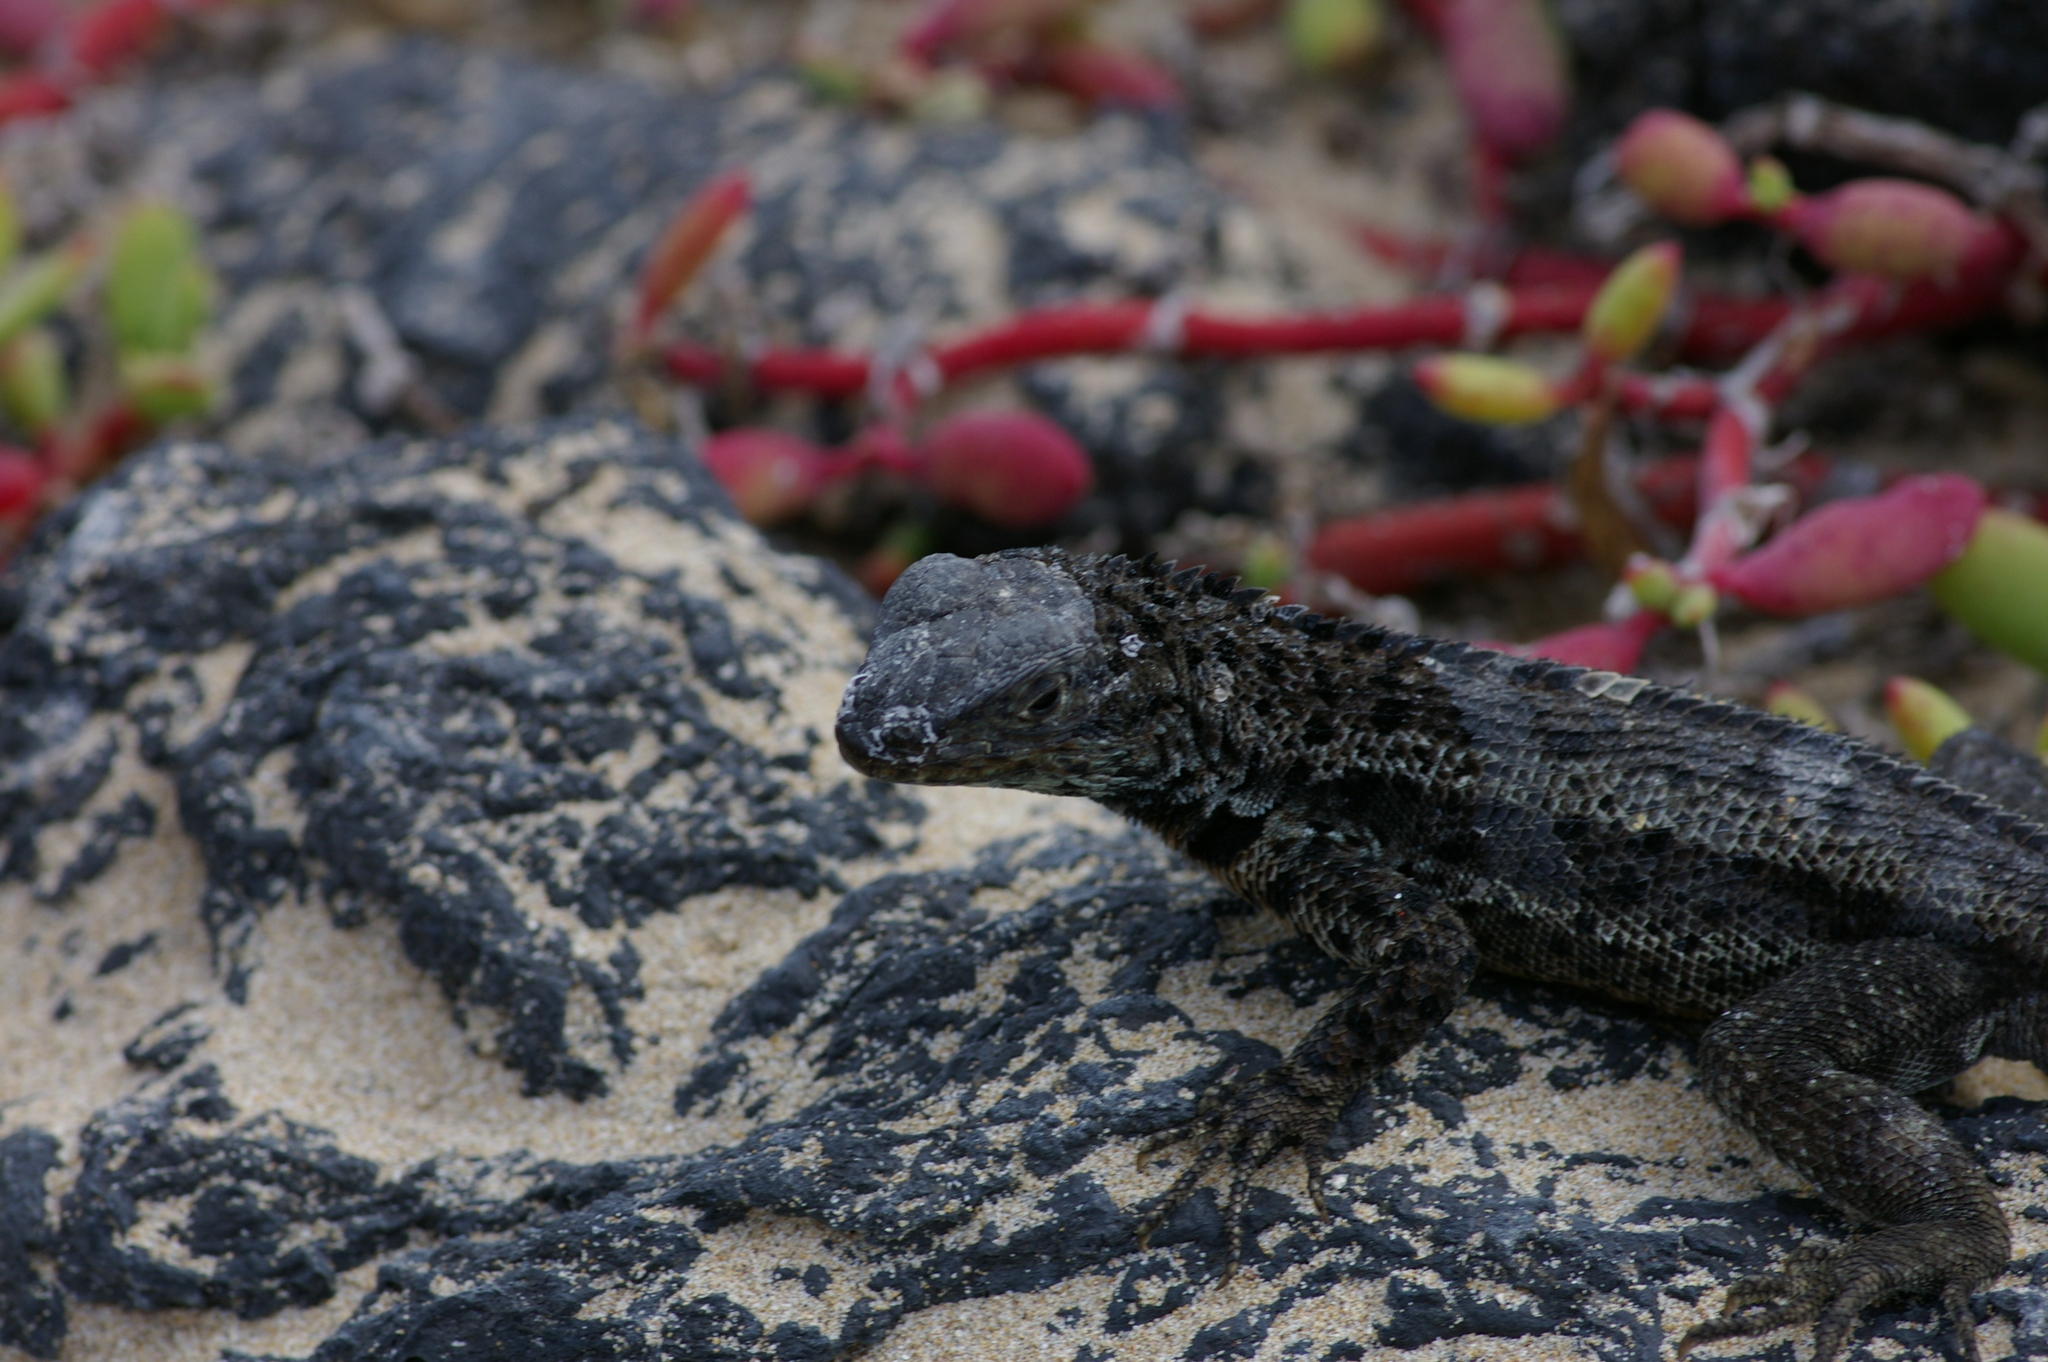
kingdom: Animalia
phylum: Chordata
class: Squamata
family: Tropiduridae
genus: Microlophus
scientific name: Microlophus albemarlensis
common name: Galapagos lava lizard
